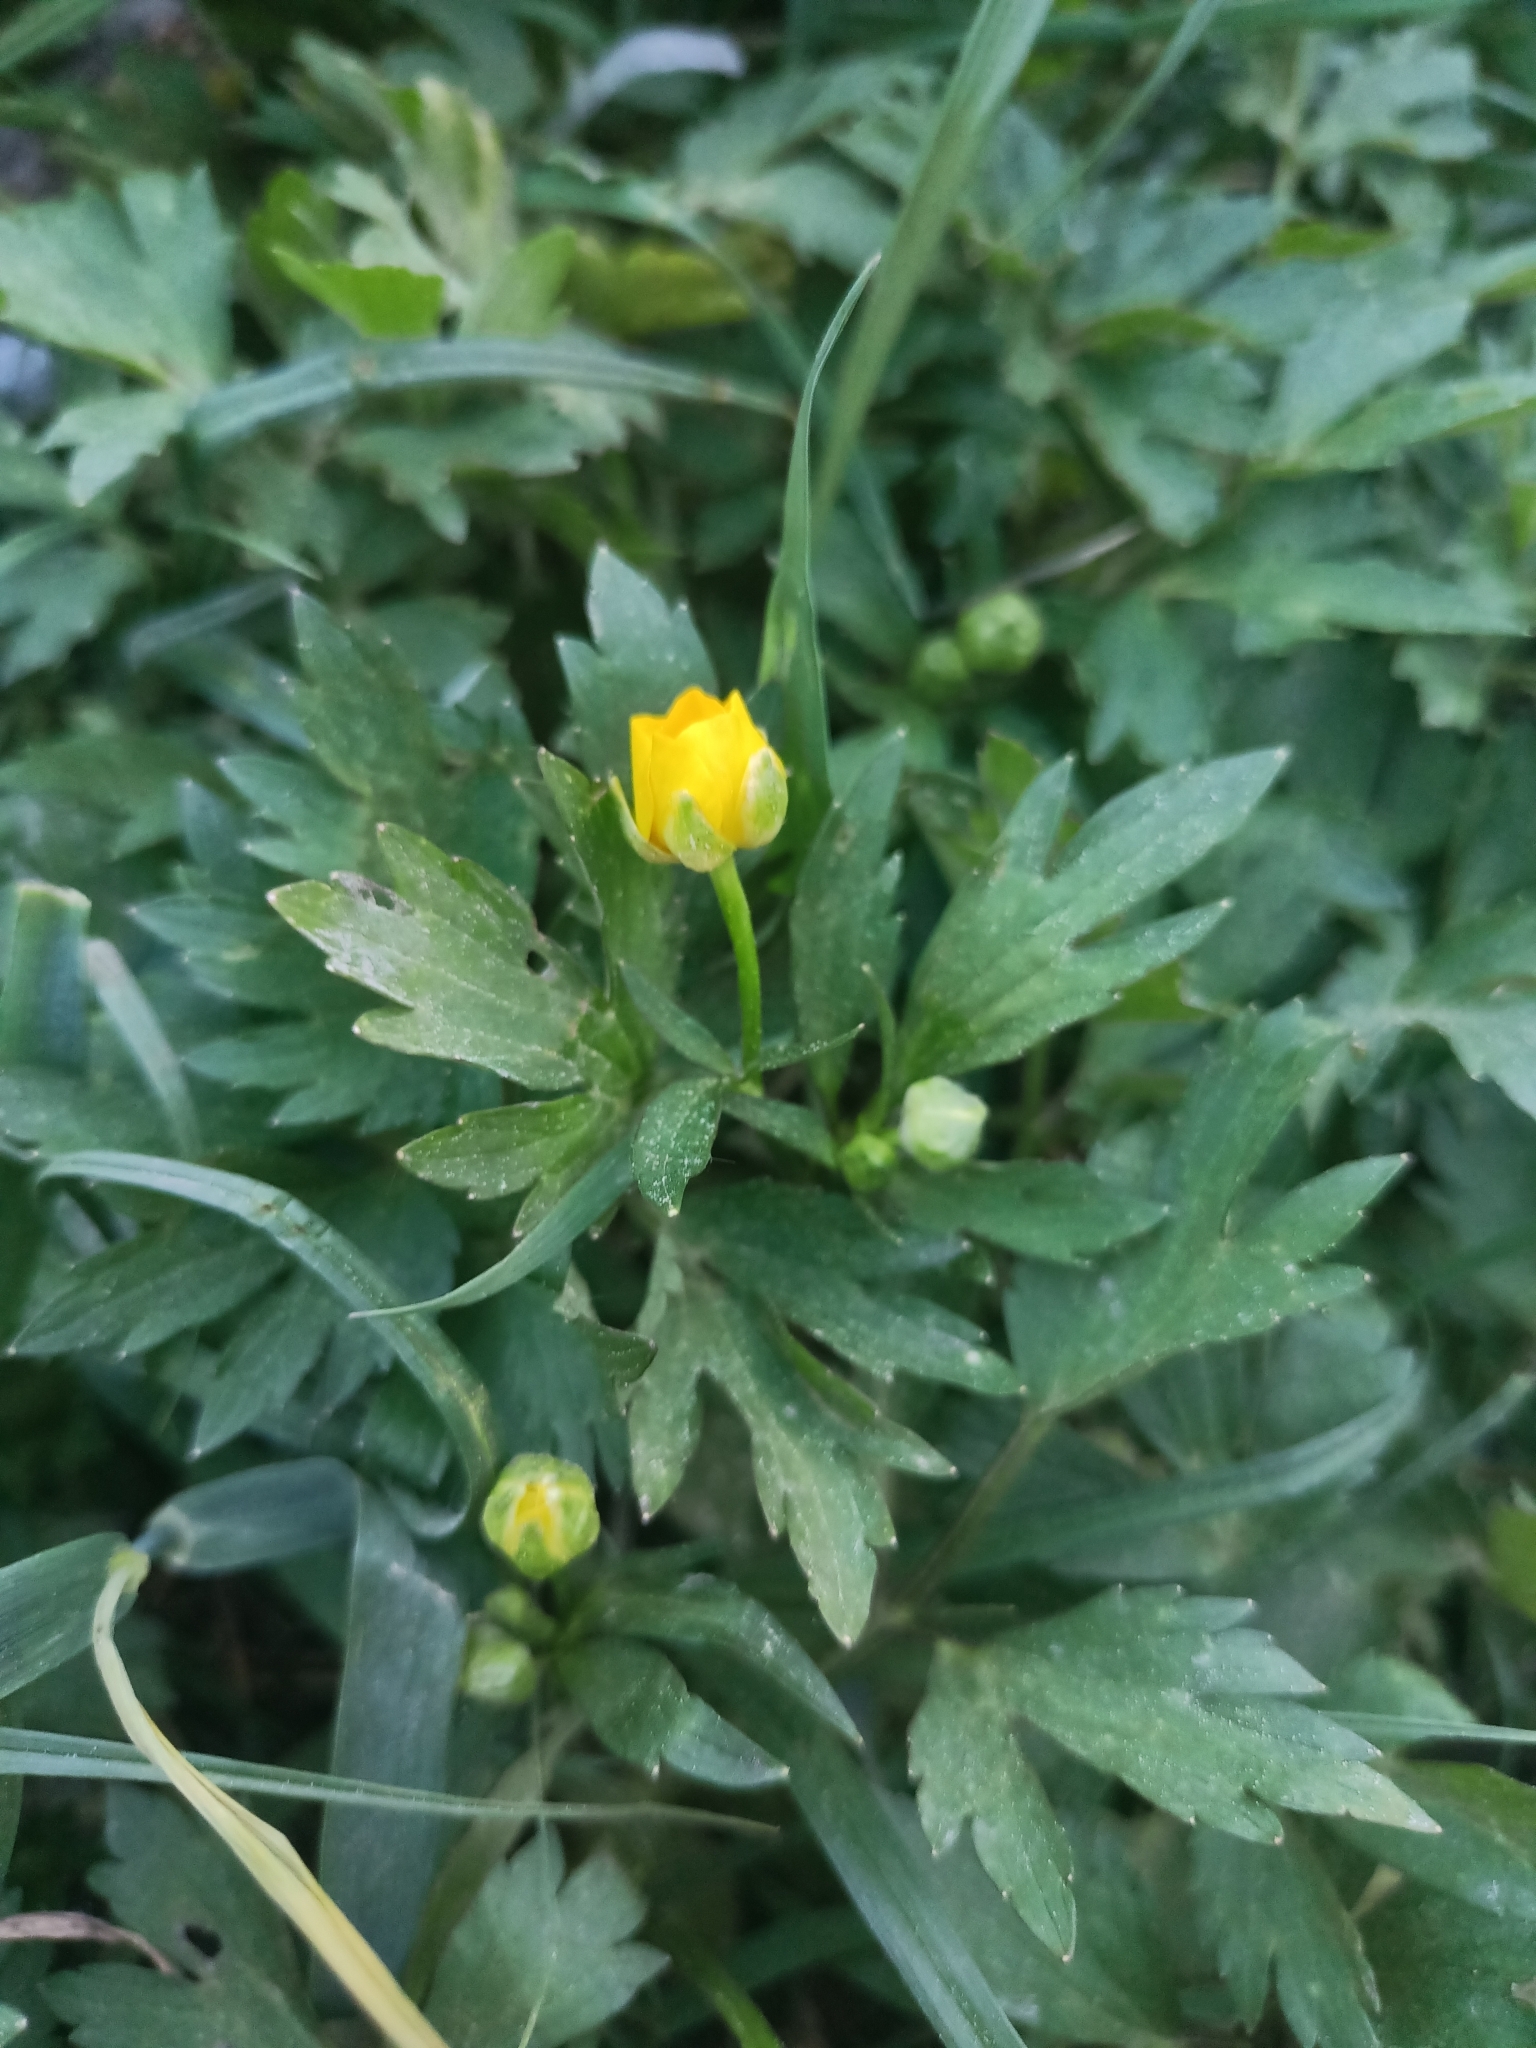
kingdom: Plantae
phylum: Tracheophyta
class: Magnoliopsida
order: Ranunculales
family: Ranunculaceae
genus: Ranunculus
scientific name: Ranunculus repens
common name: Creeping buttercup
